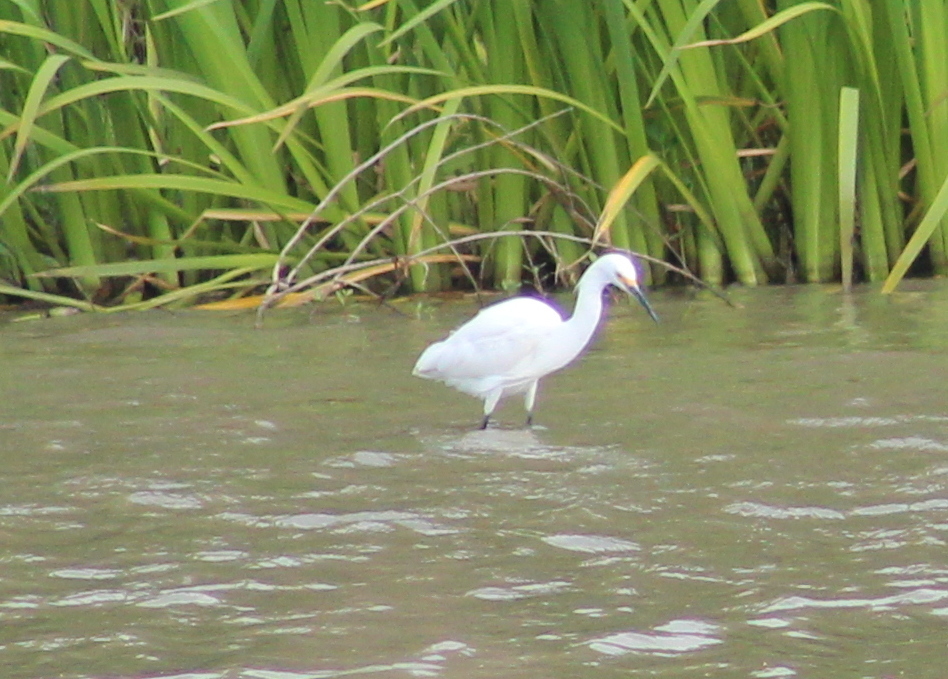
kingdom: Animalia
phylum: Chordata
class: Aves
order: Pelecaniformes
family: Ardeidae
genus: Egretta
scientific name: Egretta thula
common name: Snowy egret
